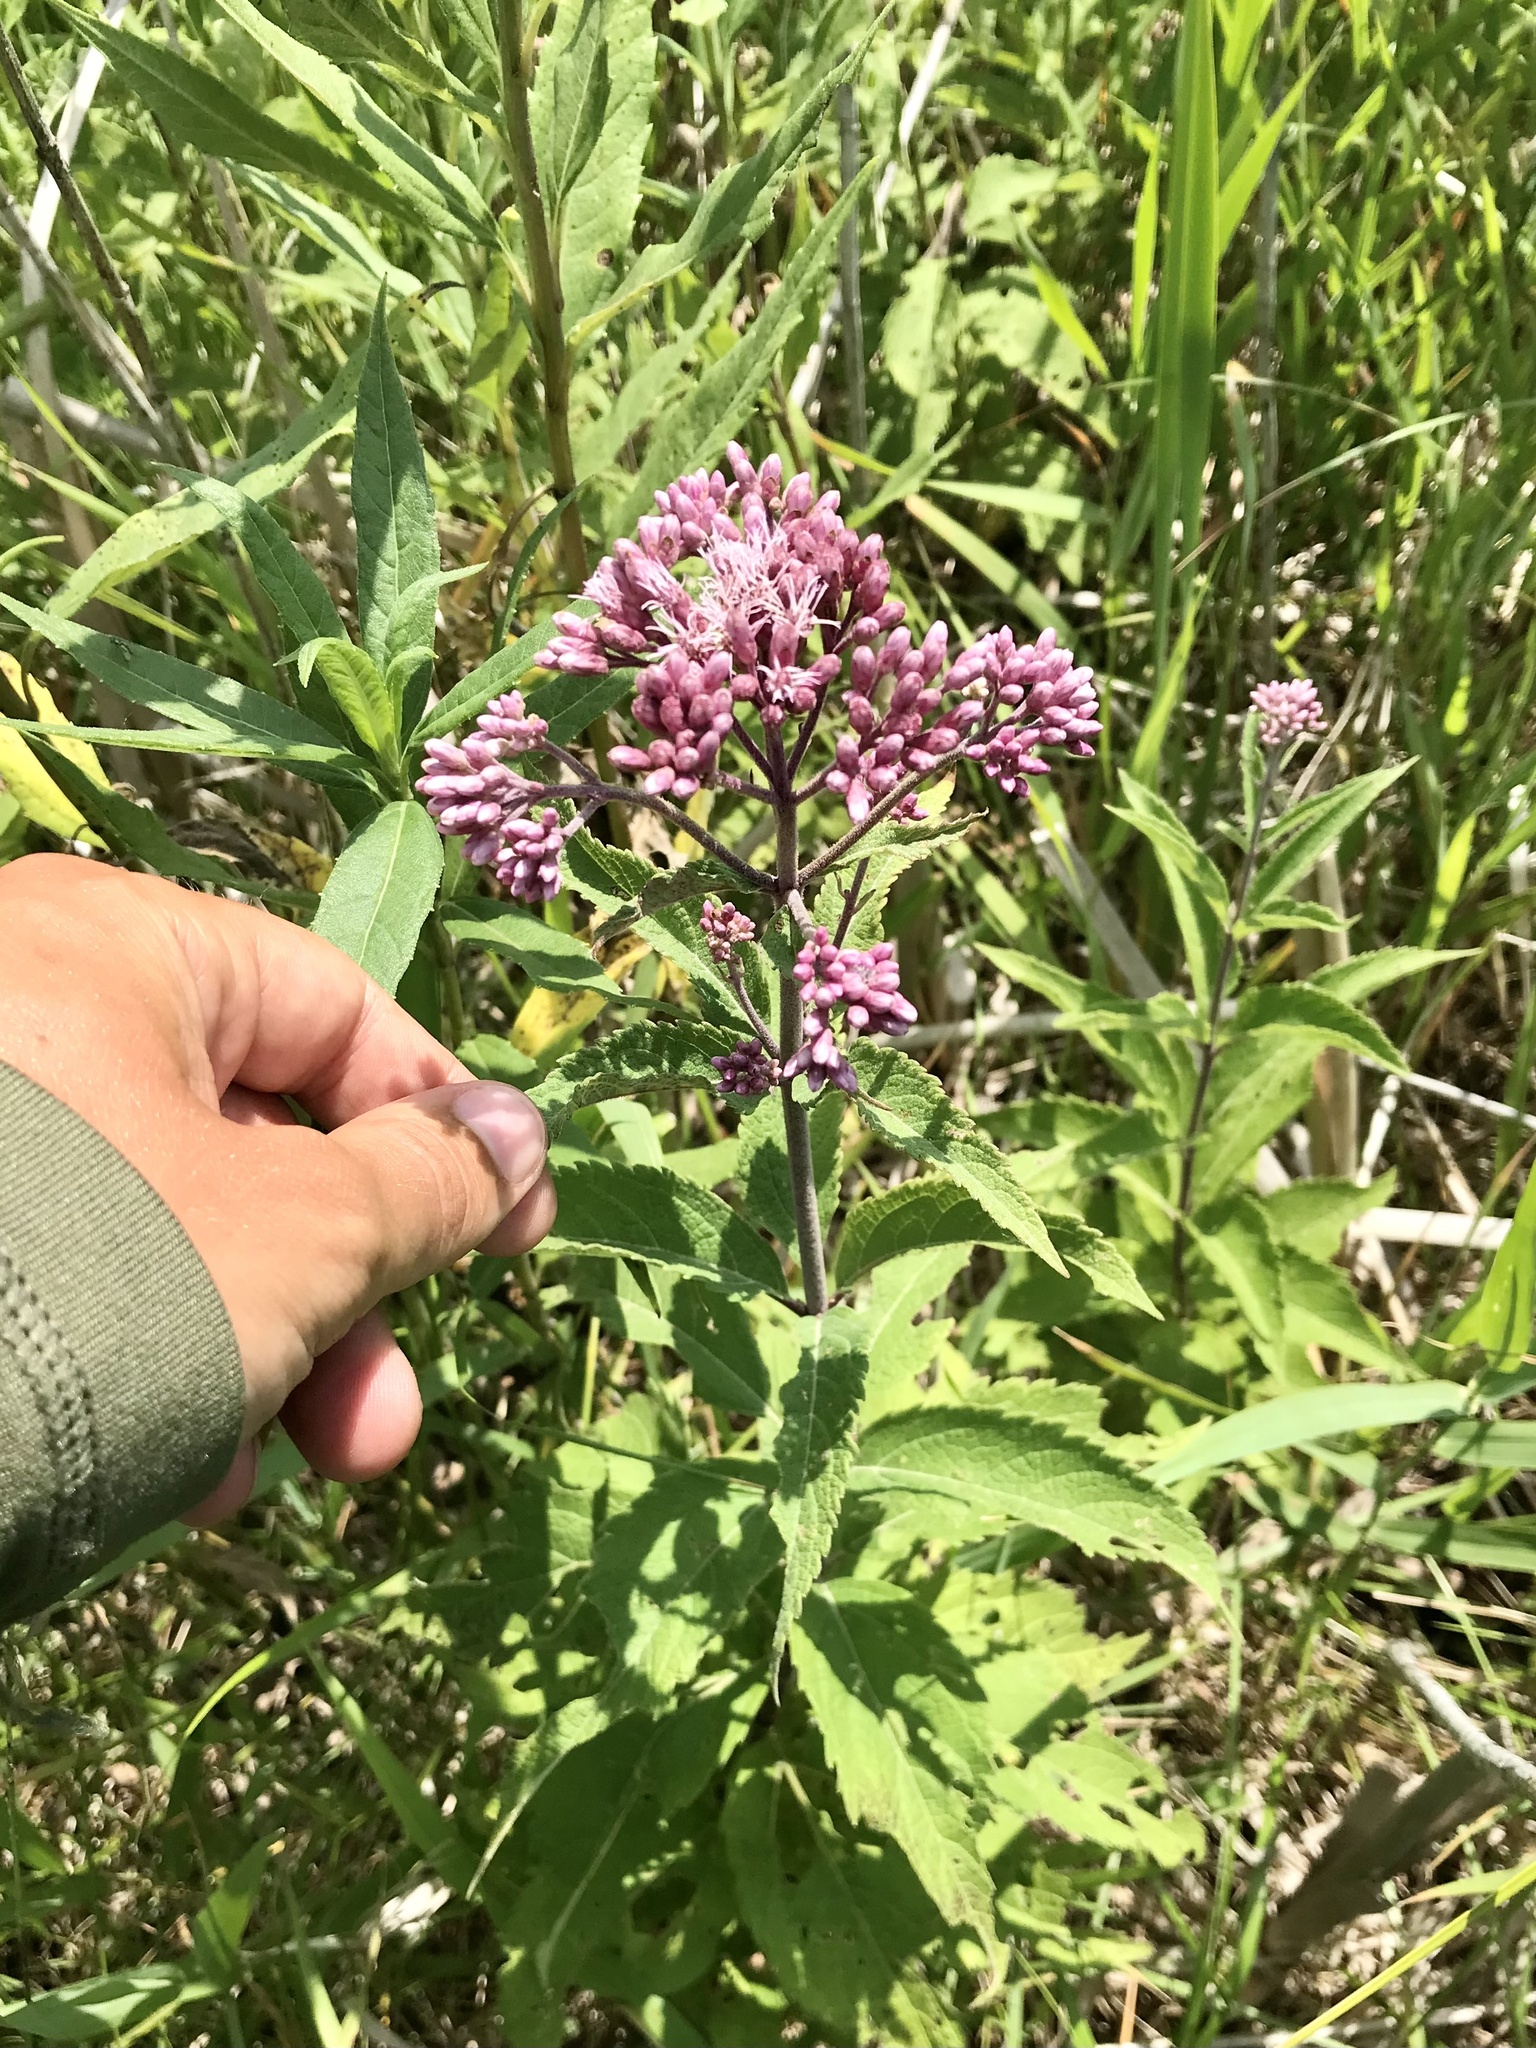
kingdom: Plantae
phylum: Tracheophyta
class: Magnoliopsida
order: Asterales
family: Asteraceae
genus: Eutrochium
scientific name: Eutrochium maculatum
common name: Spotted joe pye weed
